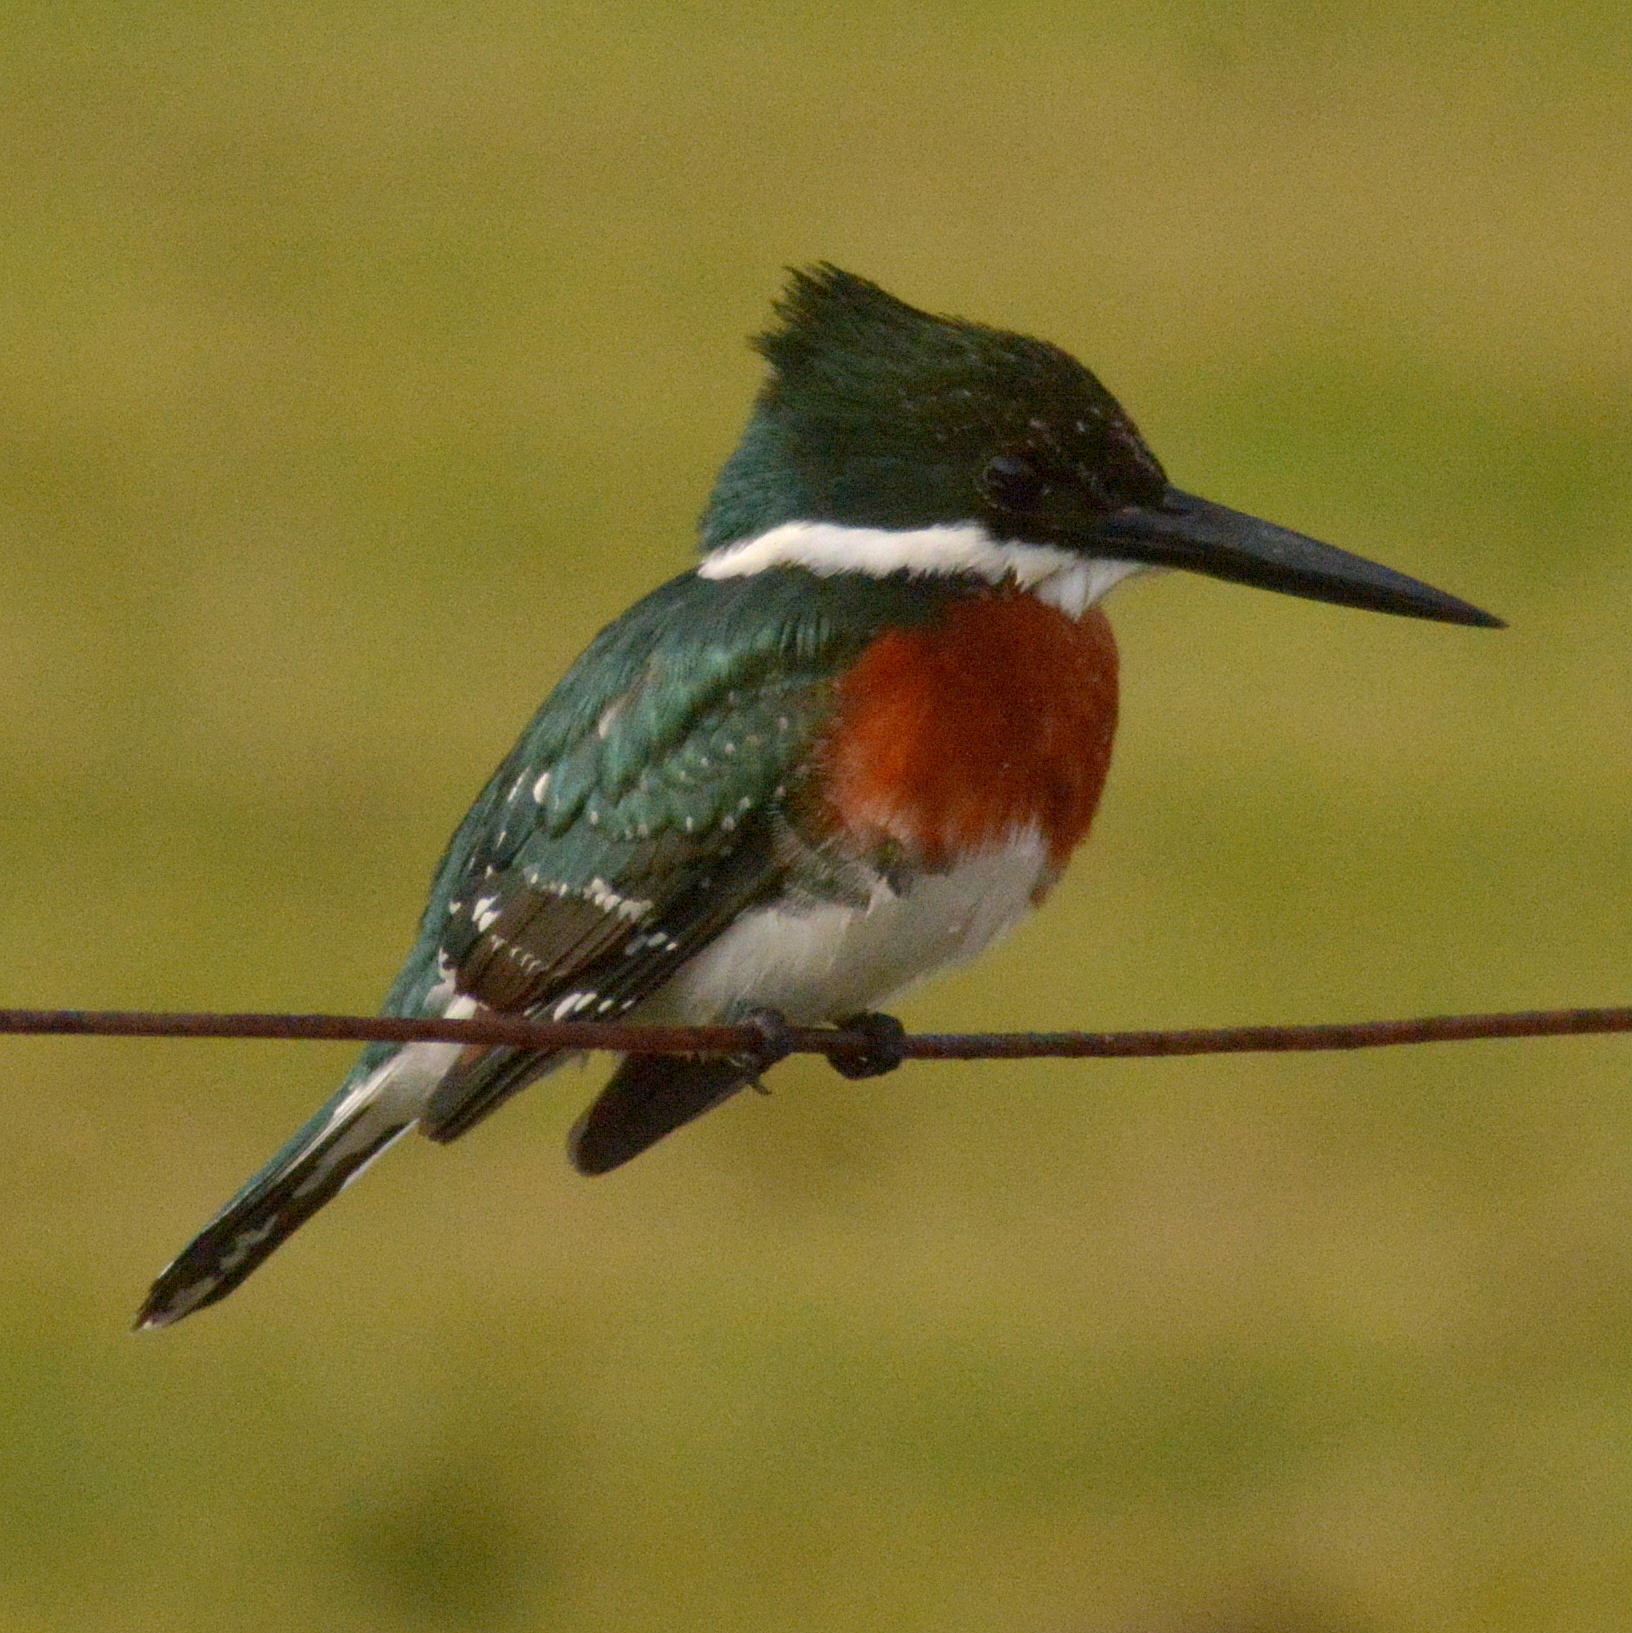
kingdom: Animalia
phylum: Chordata
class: Aves
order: Coraciiformes
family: Alcedinidae
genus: Chloroceryle
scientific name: Chloroceryle americana
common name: Green kingfisher
